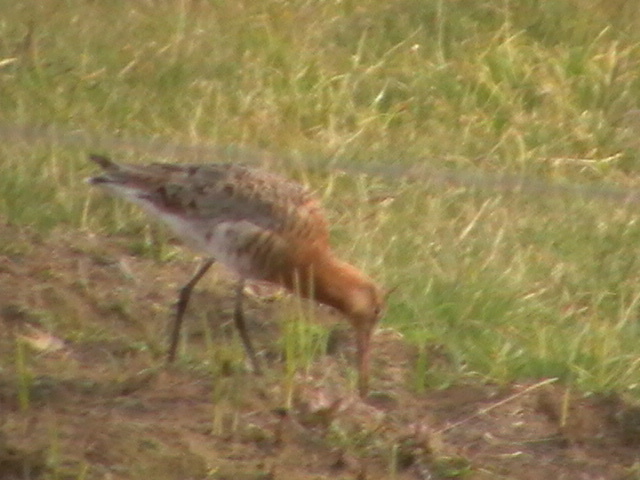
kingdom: Animalia
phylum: Chordata
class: Aves
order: Charadriiformes
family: Scolopacidae
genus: Limosa
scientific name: Limosa limosa
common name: Black-tailed godwit
